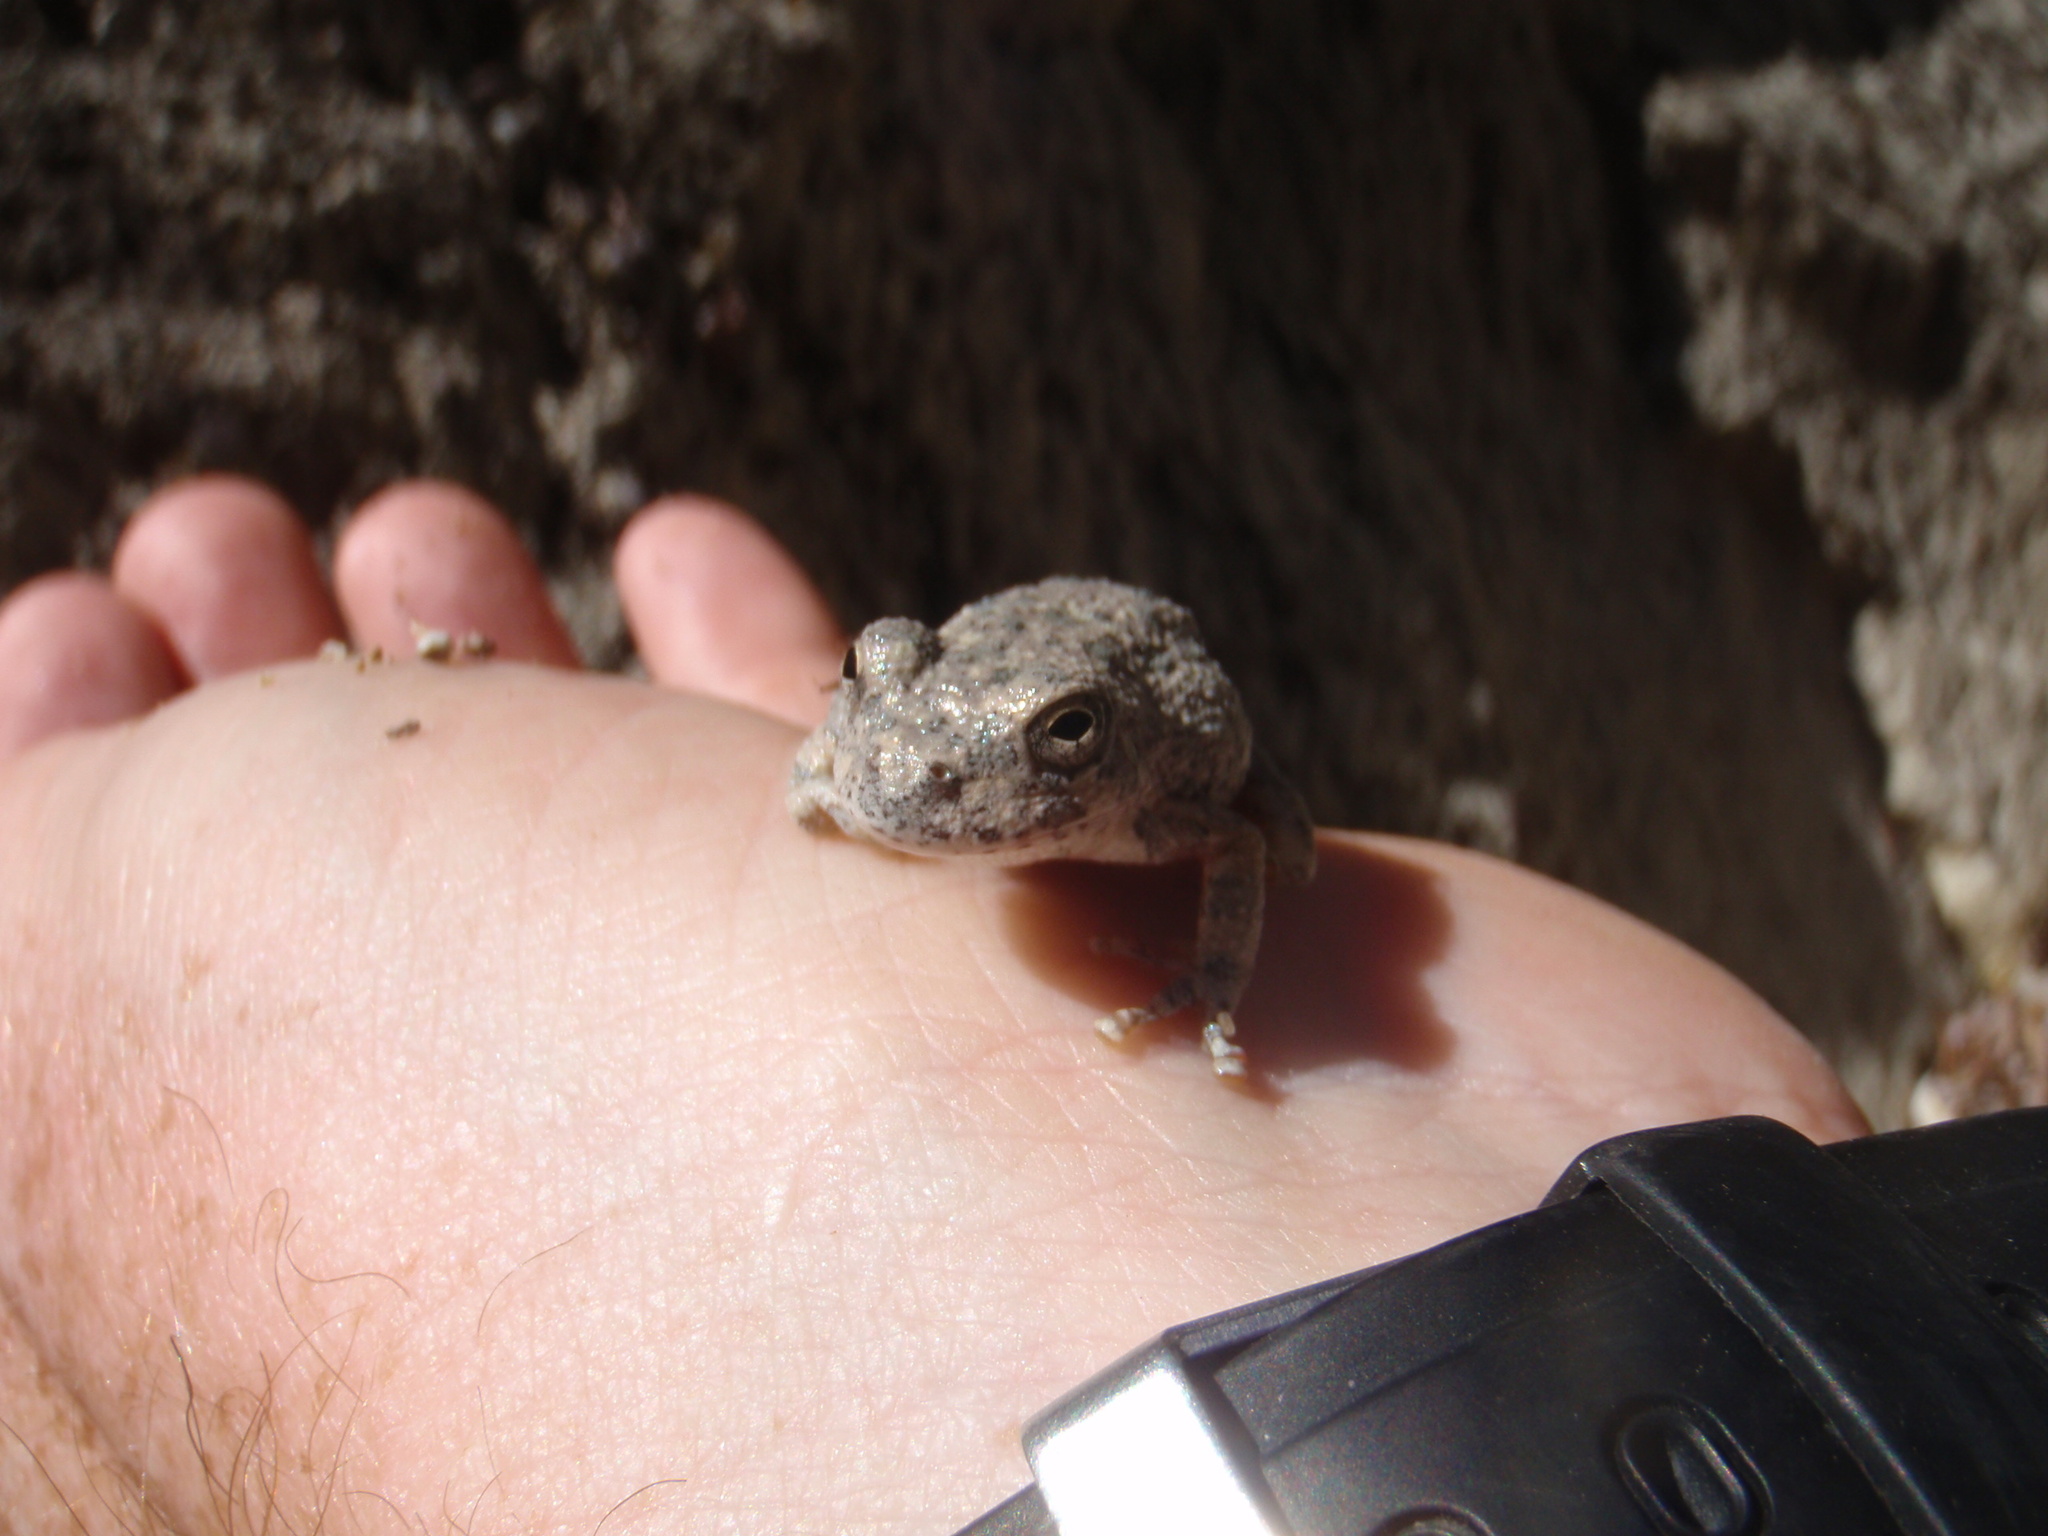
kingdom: Animalia
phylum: Chordata
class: Amphibia
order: Anura
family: Hylidae
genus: Dryophytes
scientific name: Dryophytes arenicolor
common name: Canyon treefrog
